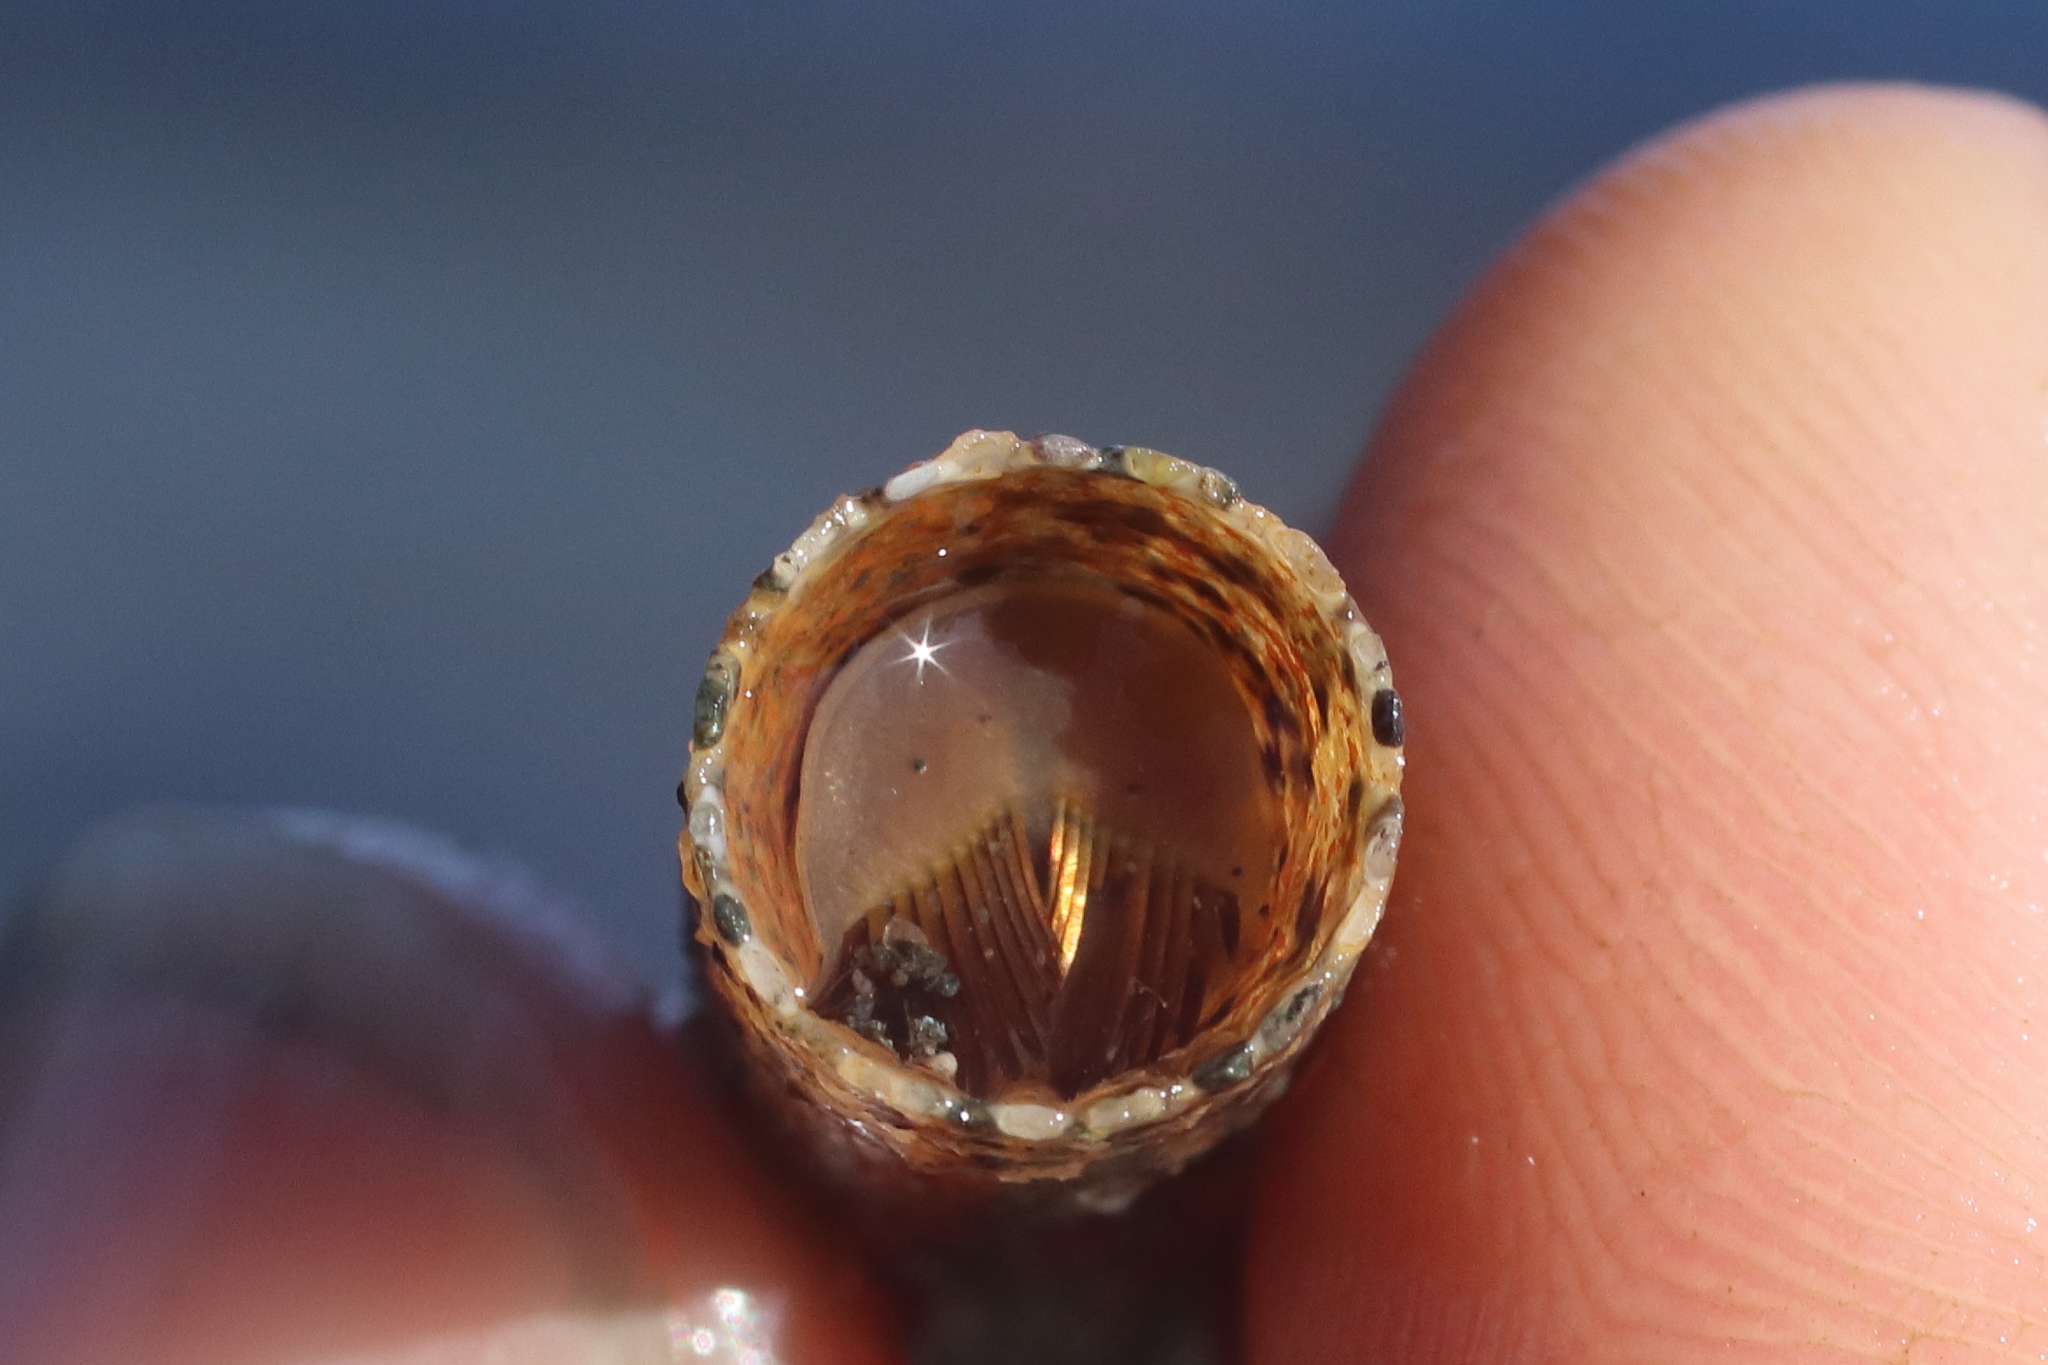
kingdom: Animalia
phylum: Annelida
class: Polychaeta
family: Pectinariidae
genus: Cistenides
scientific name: Cistenides brevicoma
